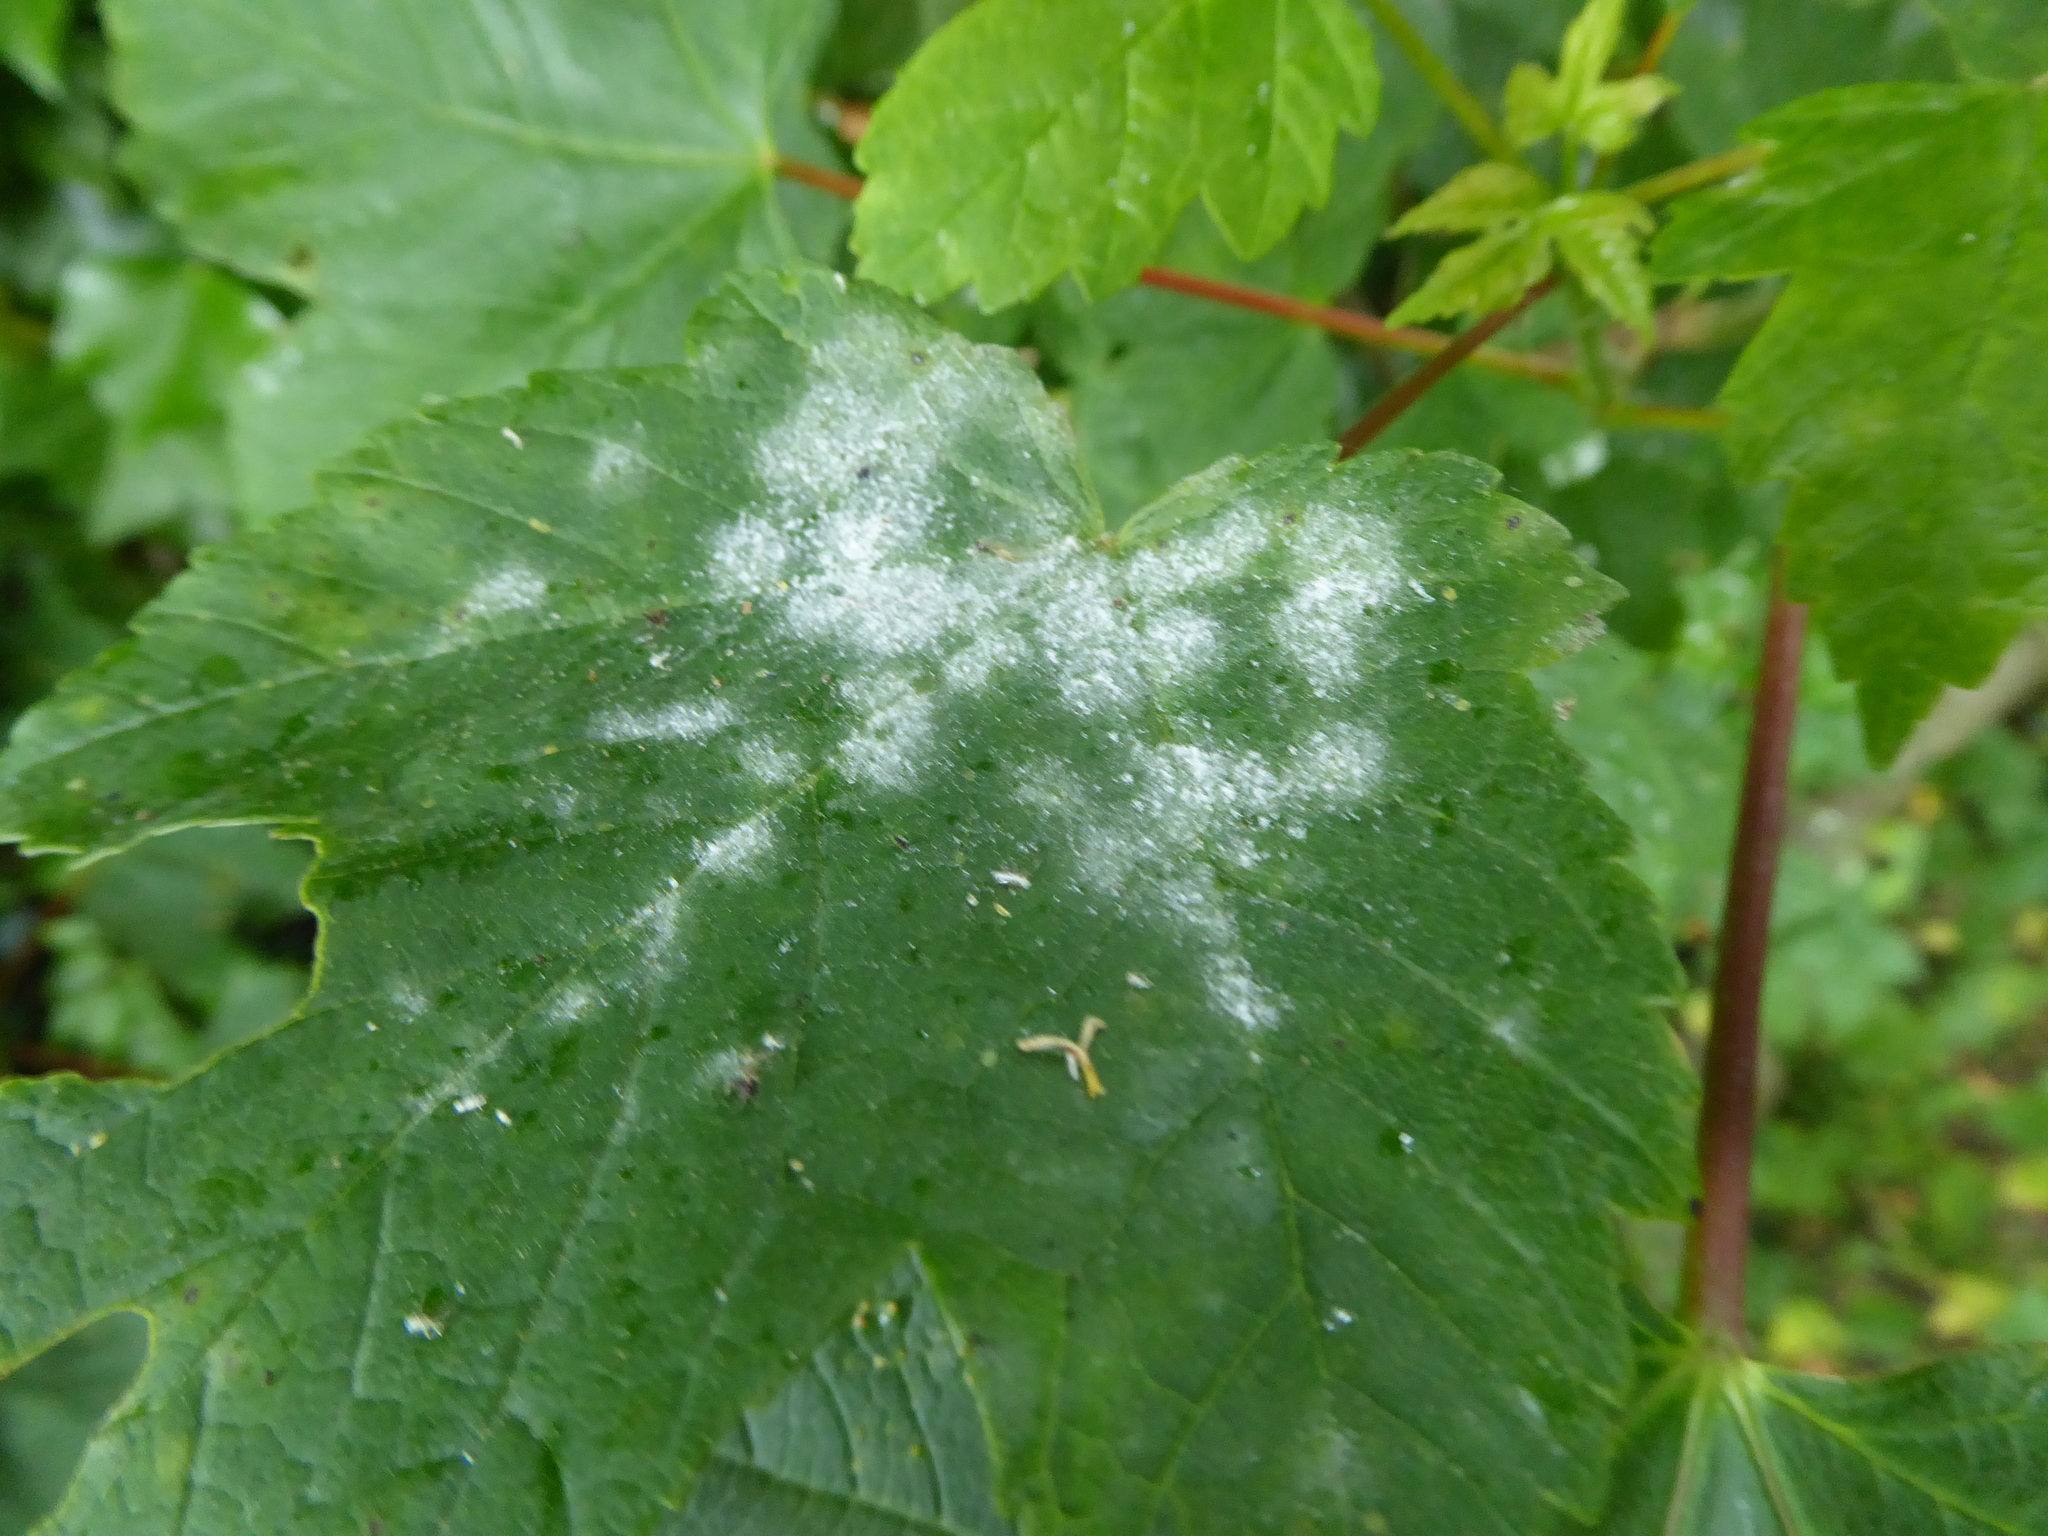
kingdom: Fungi
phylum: Ascomycota
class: Leotiomycetes
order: Helotiales
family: Erysiphaceae
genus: Sawadaea
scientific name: Sawadaea bicornis
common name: Maple mildew
